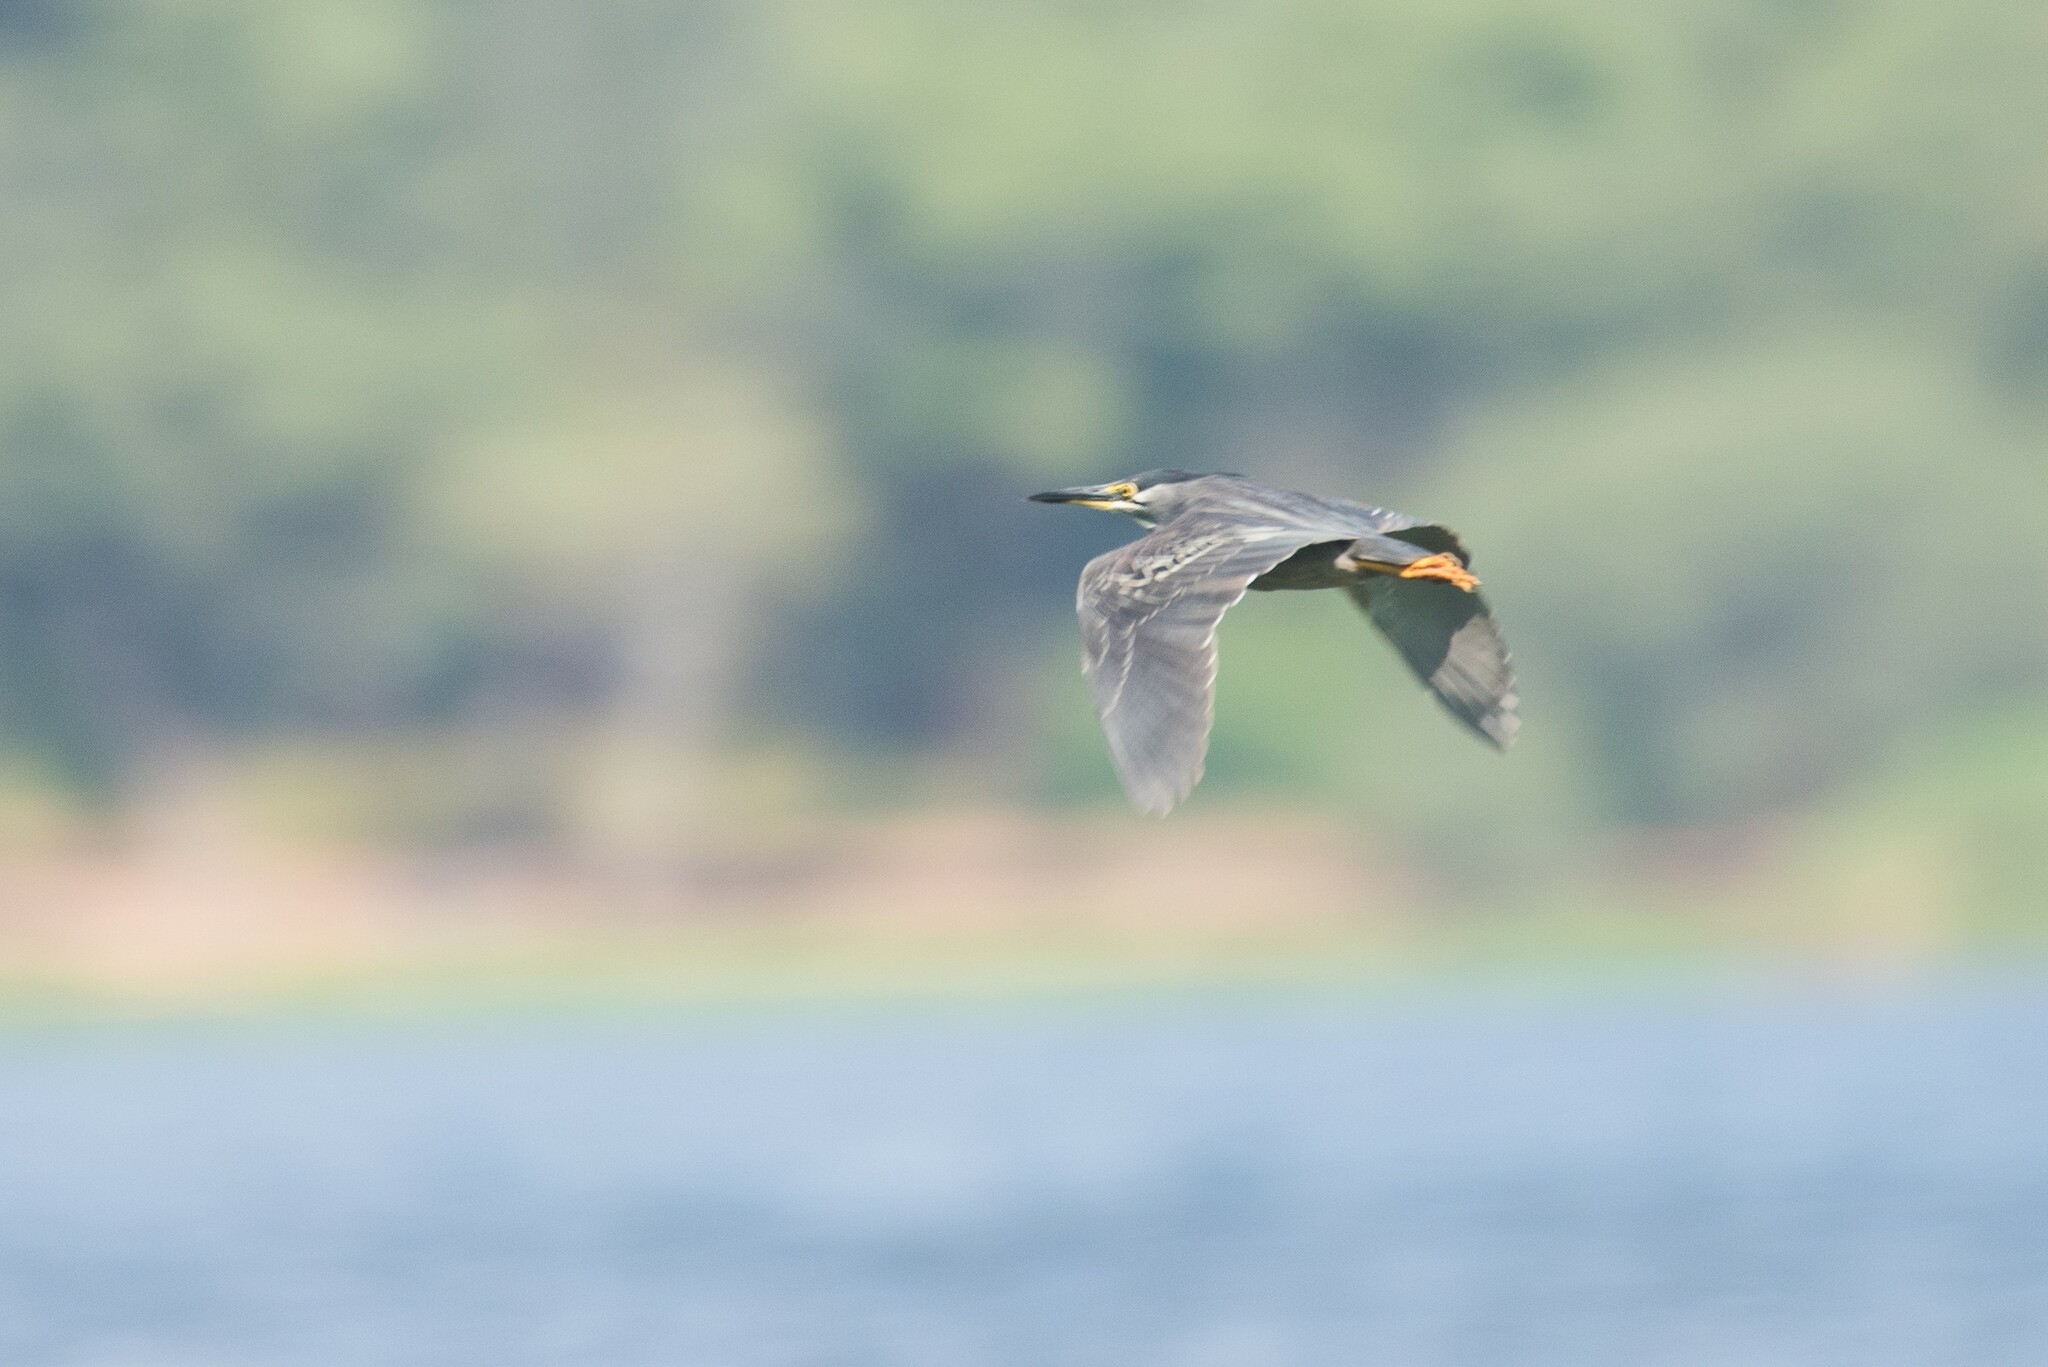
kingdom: Animalia
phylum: Chordata
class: Aves
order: Pelecaniformes
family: Ardeidae
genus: Butorides
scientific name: Butorides striata
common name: Striated heron
